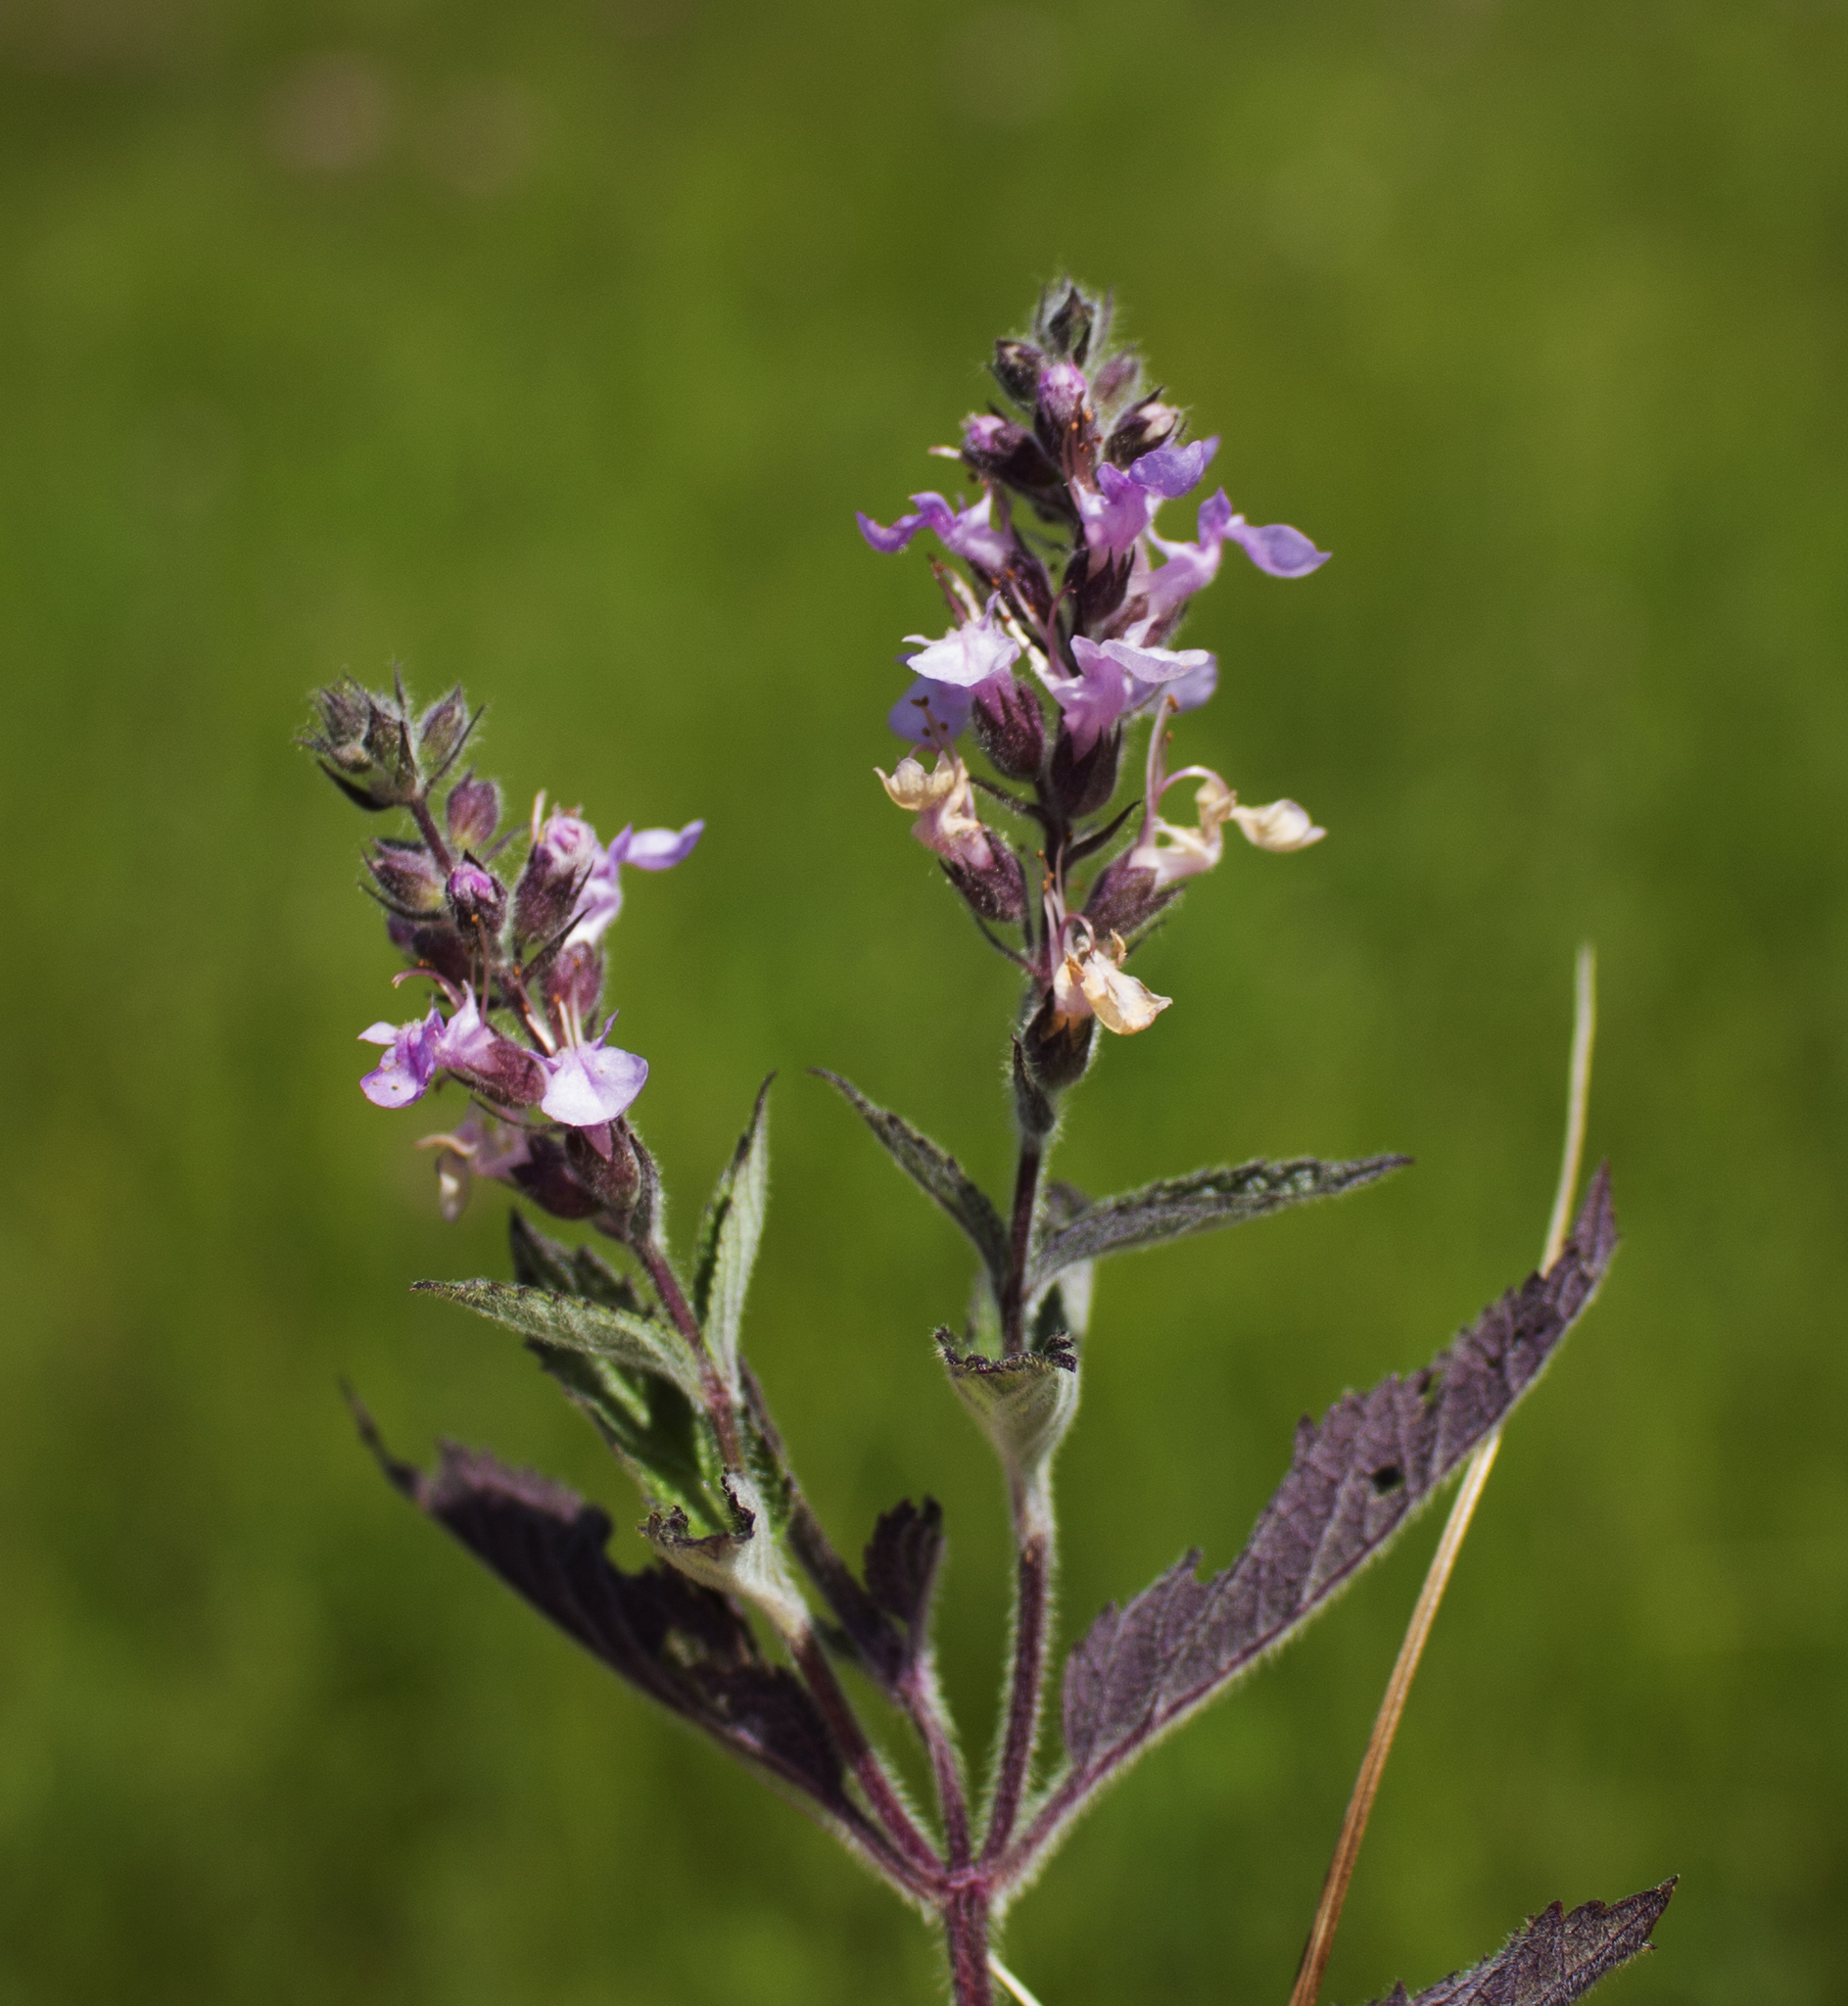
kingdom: Plantae
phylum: Tracheophyta
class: Magnoliopsida
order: Lamiales
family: Lamiaceae
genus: Teucrium
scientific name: Teucrium canadense
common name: American germander
